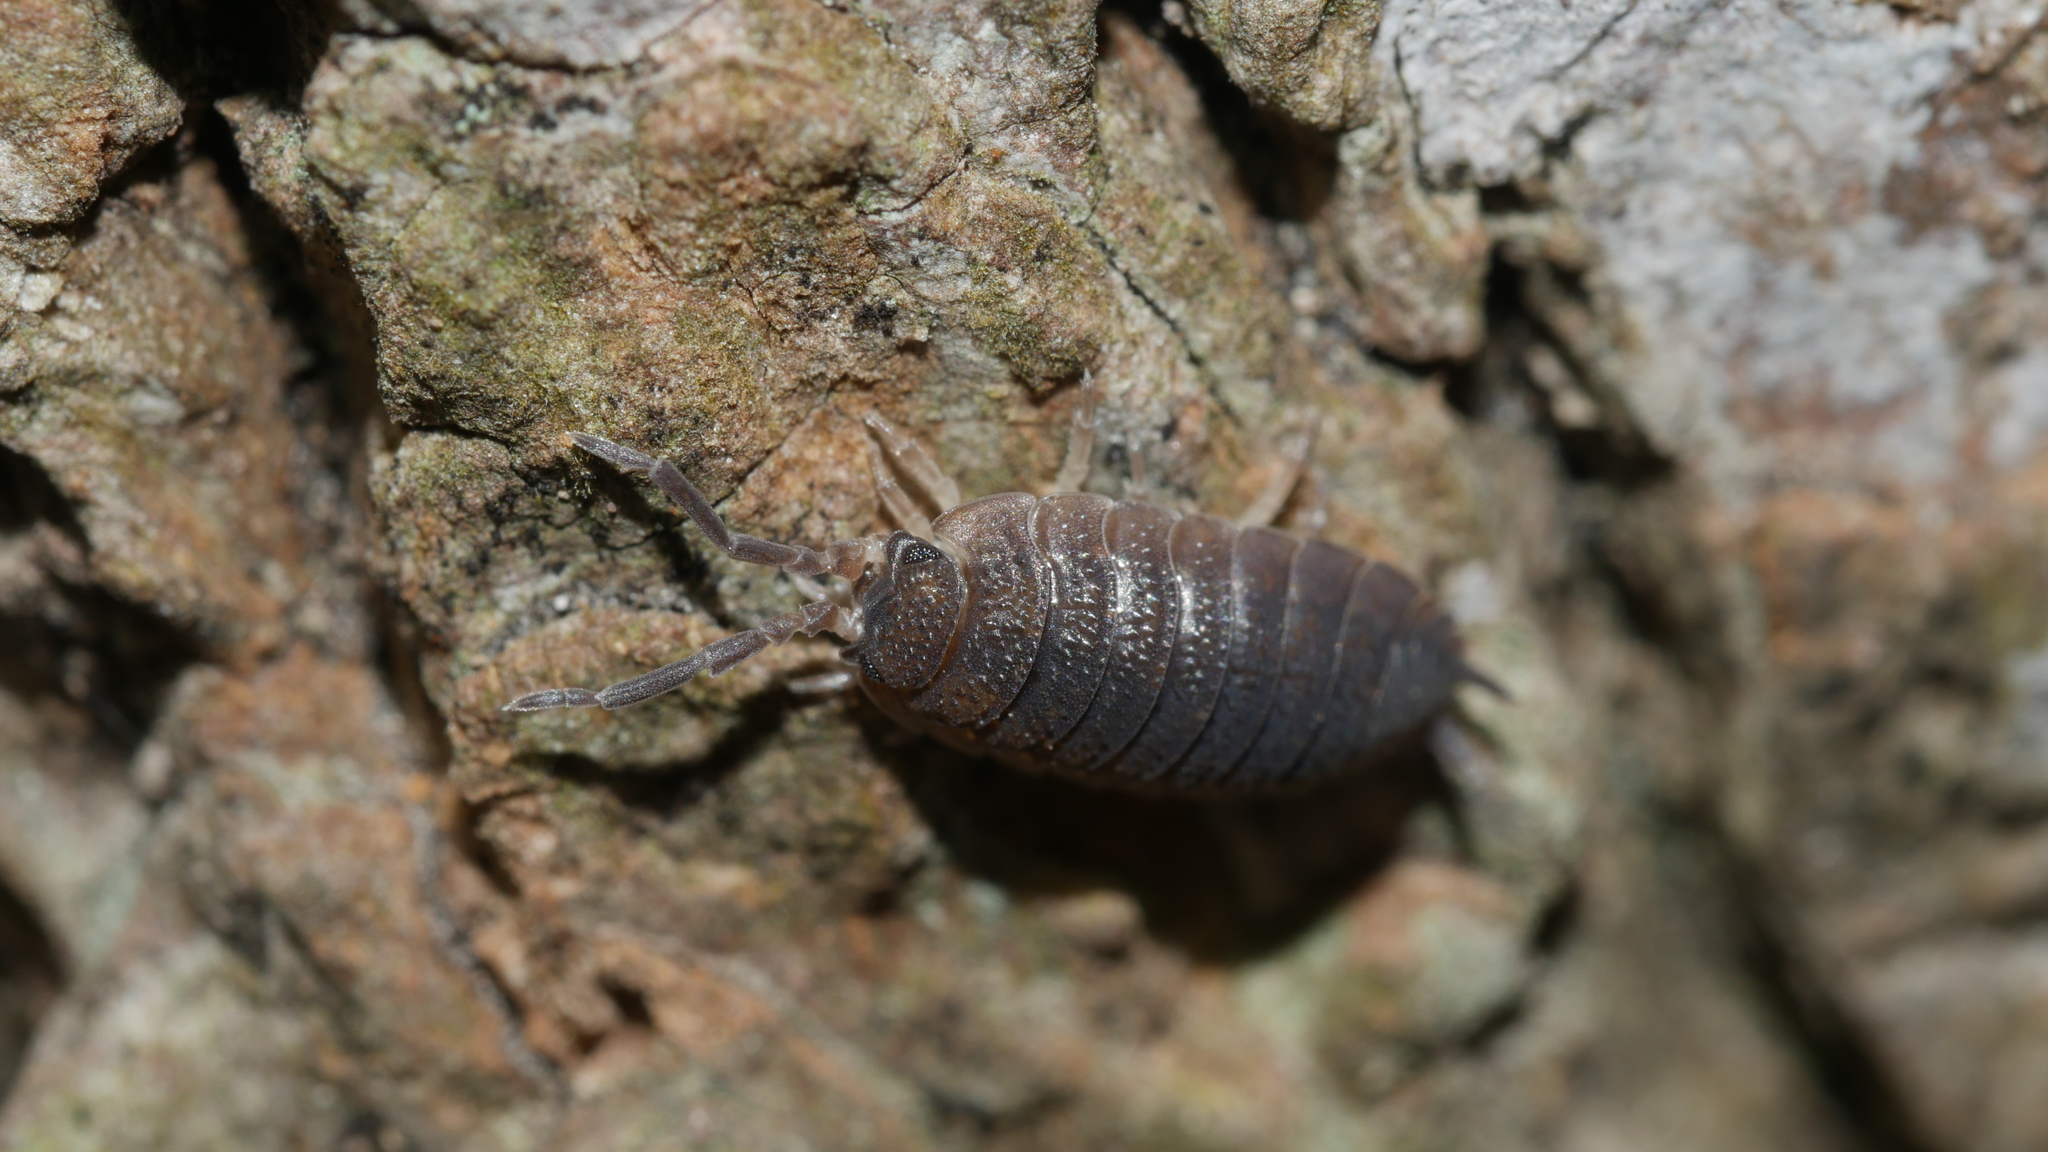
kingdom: Animalia
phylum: Arthropoda
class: Malacostraca
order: Isopoda
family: Porcellionidae
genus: Porcellio
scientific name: Porcellio scaber
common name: Common rough woodlouse
